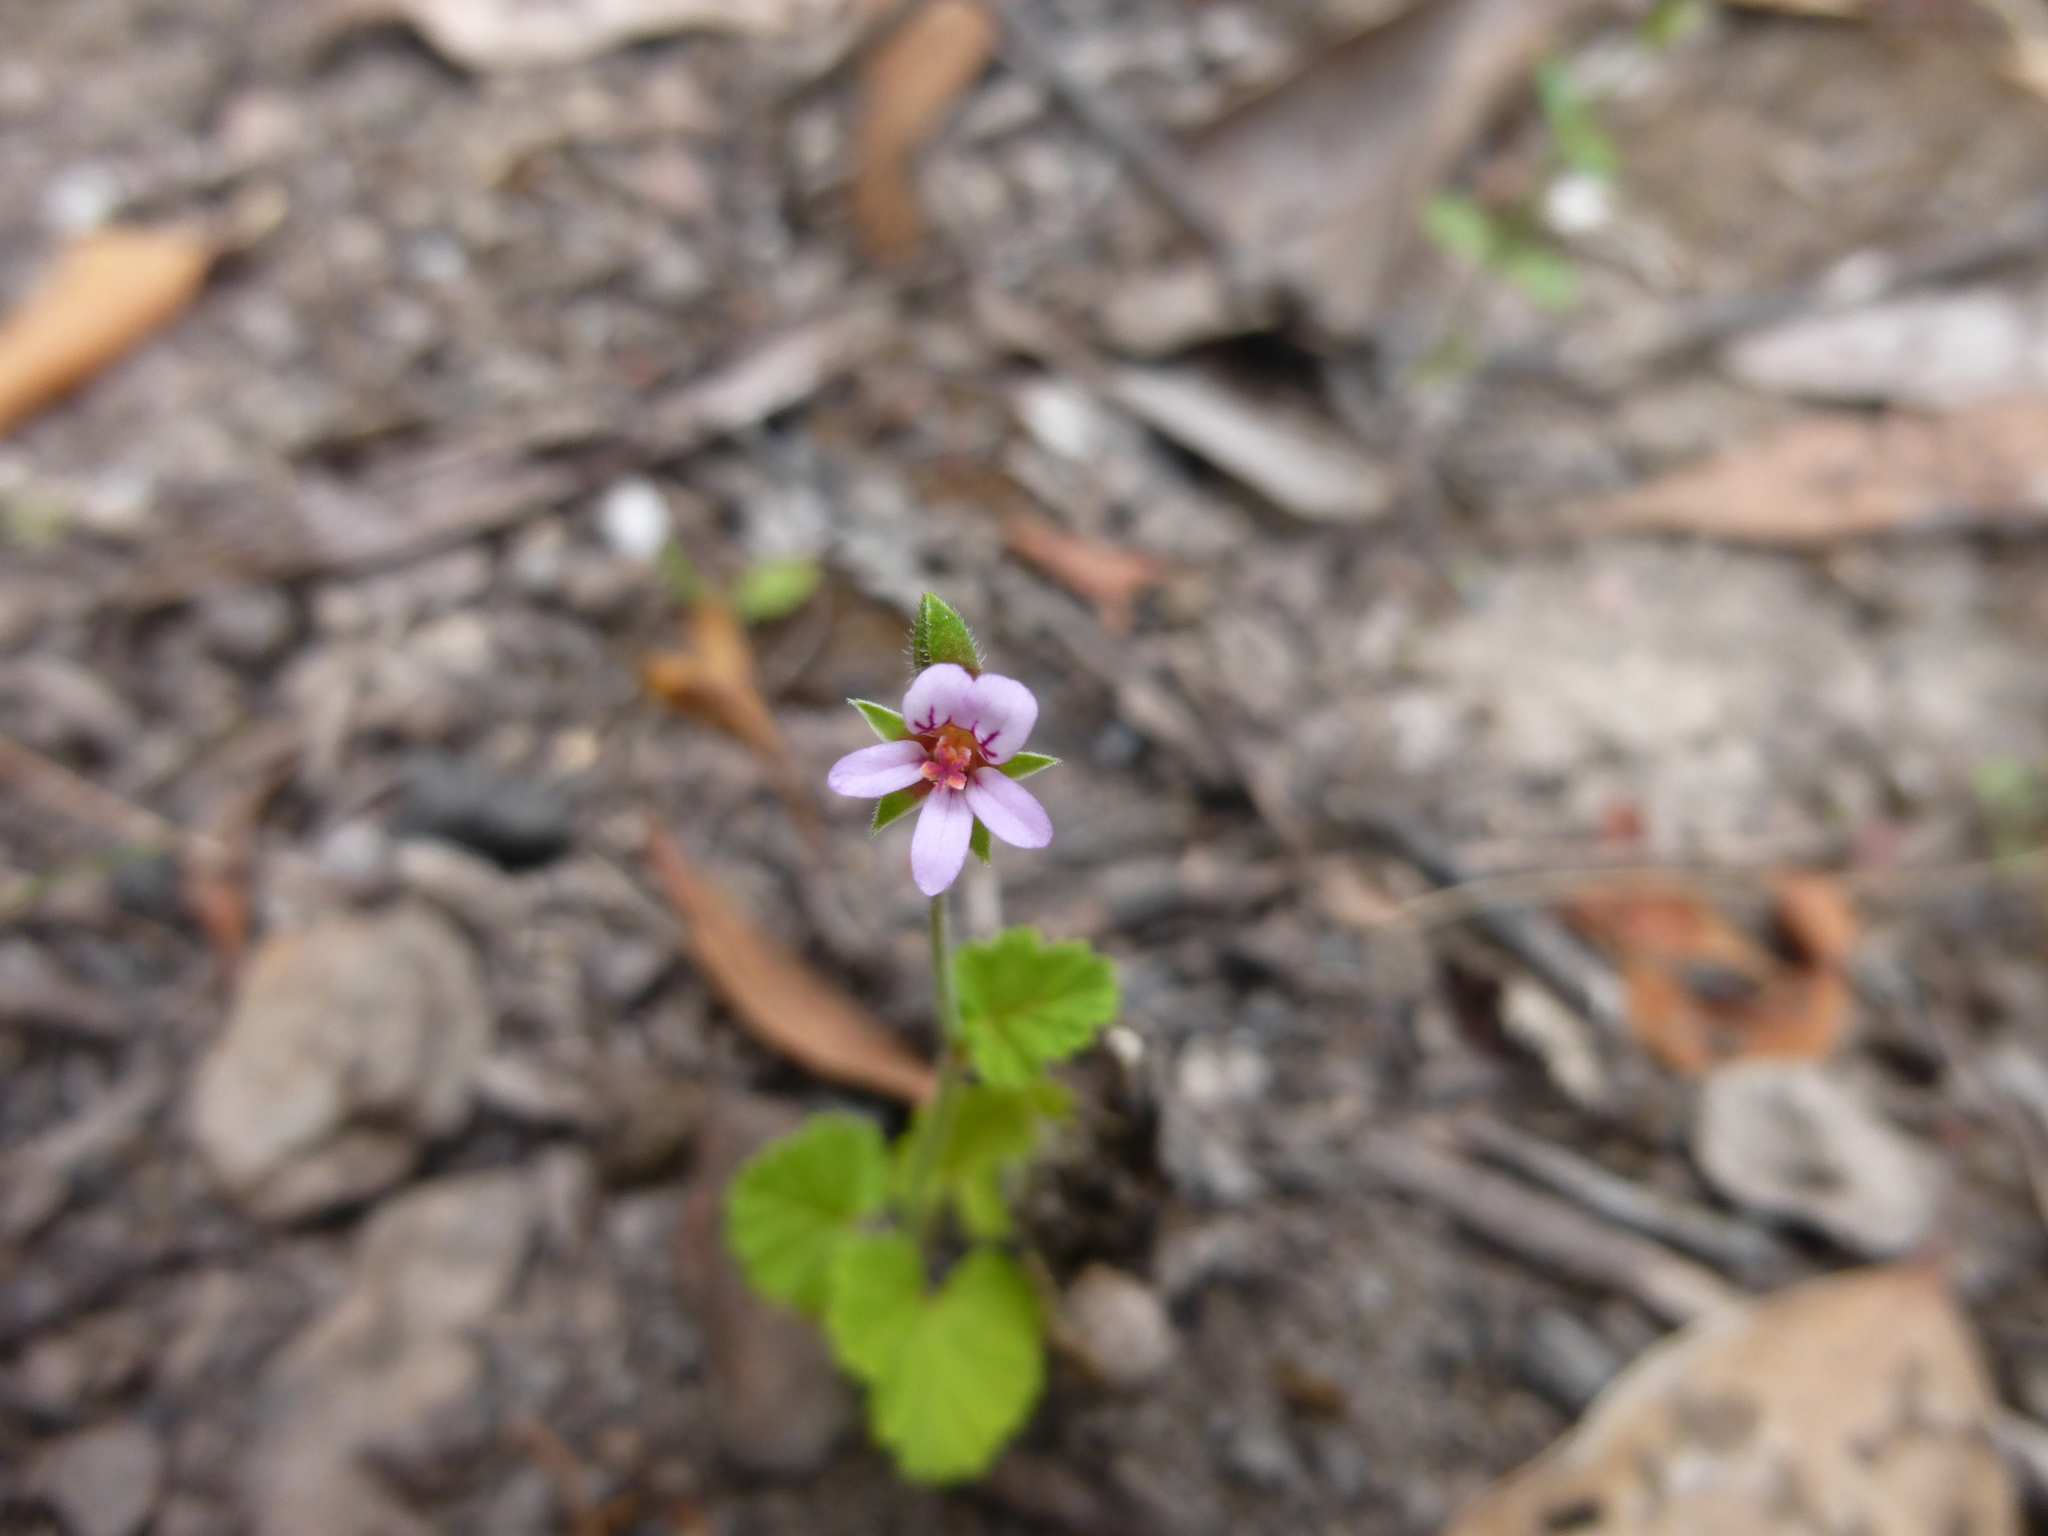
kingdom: Plantae
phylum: Tracheophyta
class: Magnoliopsida
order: Geraniales
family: Geraniaceae
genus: Pelargonium
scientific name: Pelargonium australe
